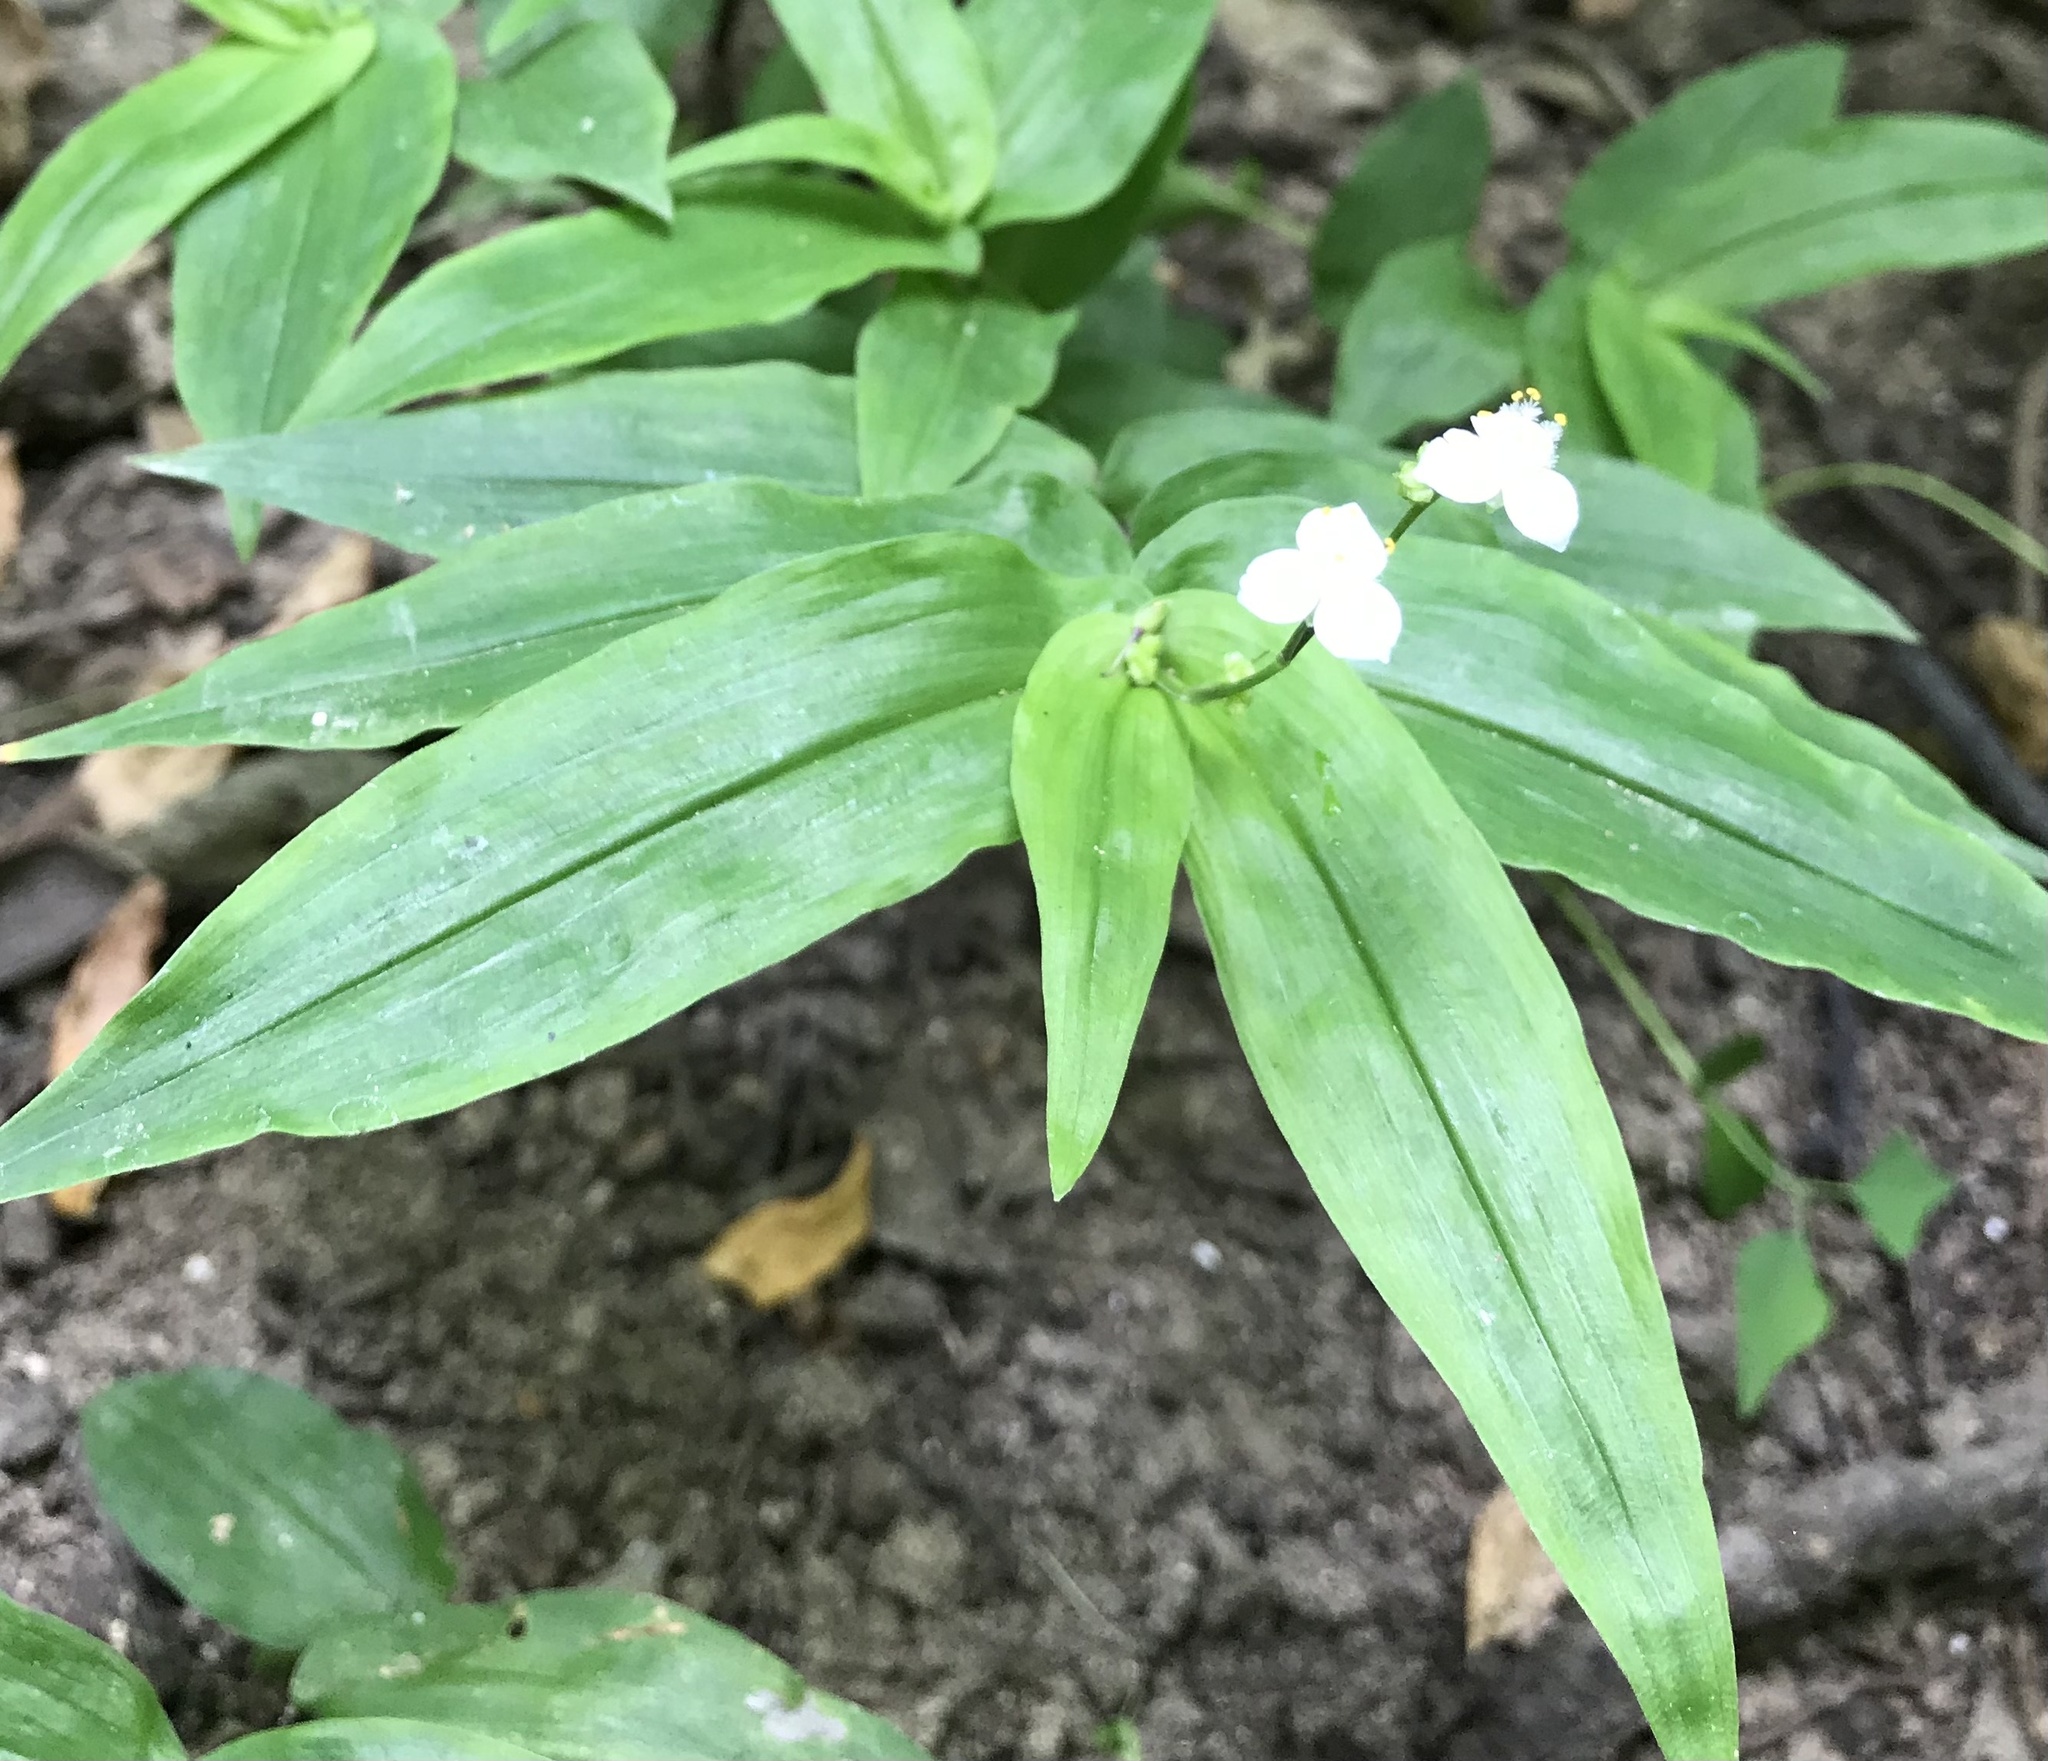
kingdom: Plantae
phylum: Tracheophyta
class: Liliopsida
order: Commelinales
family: Commelinaceae
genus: Gibasis
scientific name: Gibasis pellucida
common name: Dotted bridalveil
